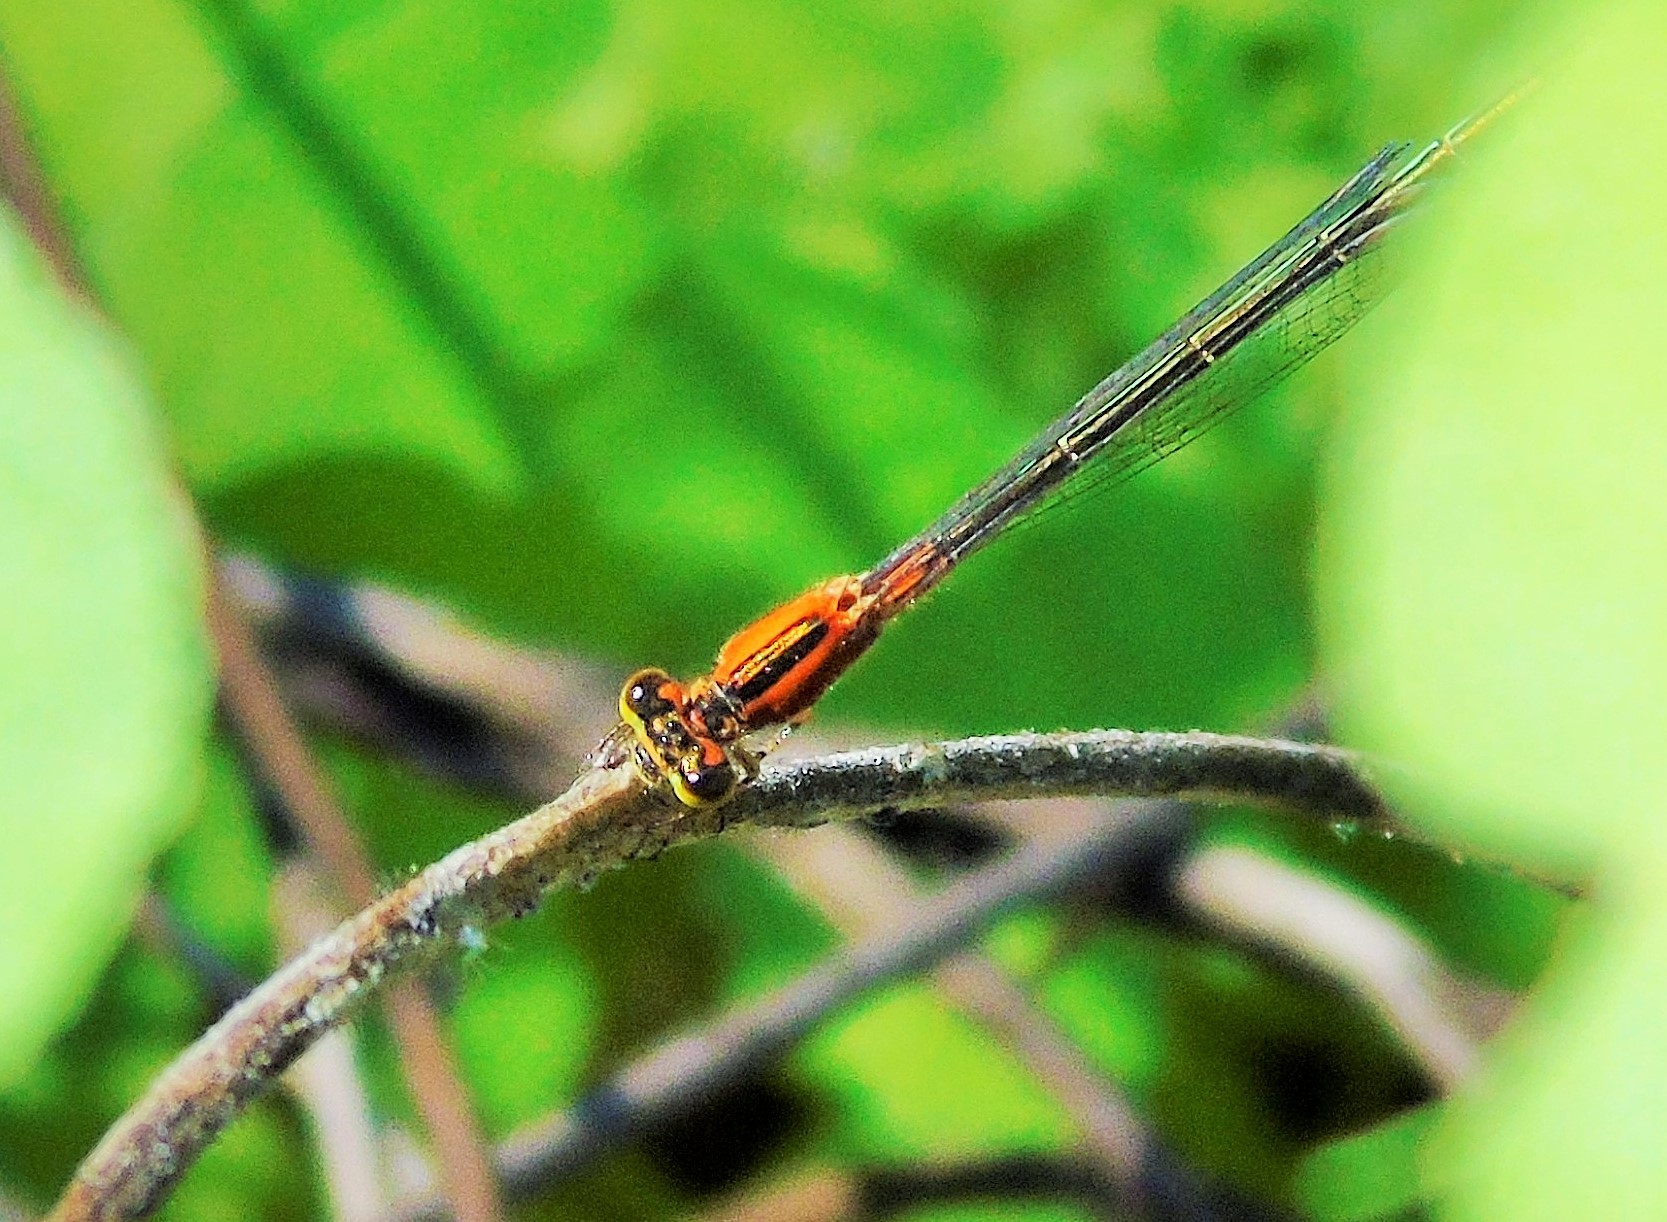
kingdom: Animalia
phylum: Arthropoda
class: Insecta
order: Odonata
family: Coenagrionidae
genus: Ischnura
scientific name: Ischnura
